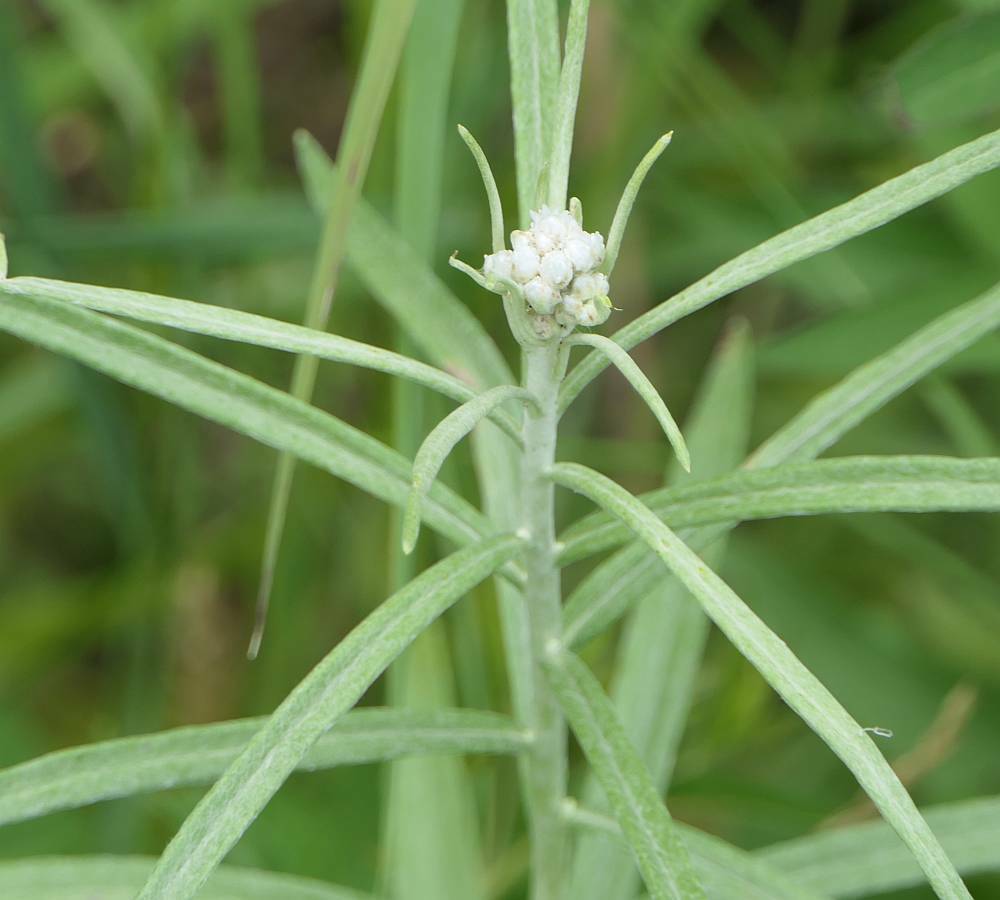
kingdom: Plantae
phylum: Tracheophyta
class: Magnoliopsida
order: Asterales
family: Asteraceae
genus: Anaphalis
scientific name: Anaphalis margaritacea
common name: Pearly everlasting
